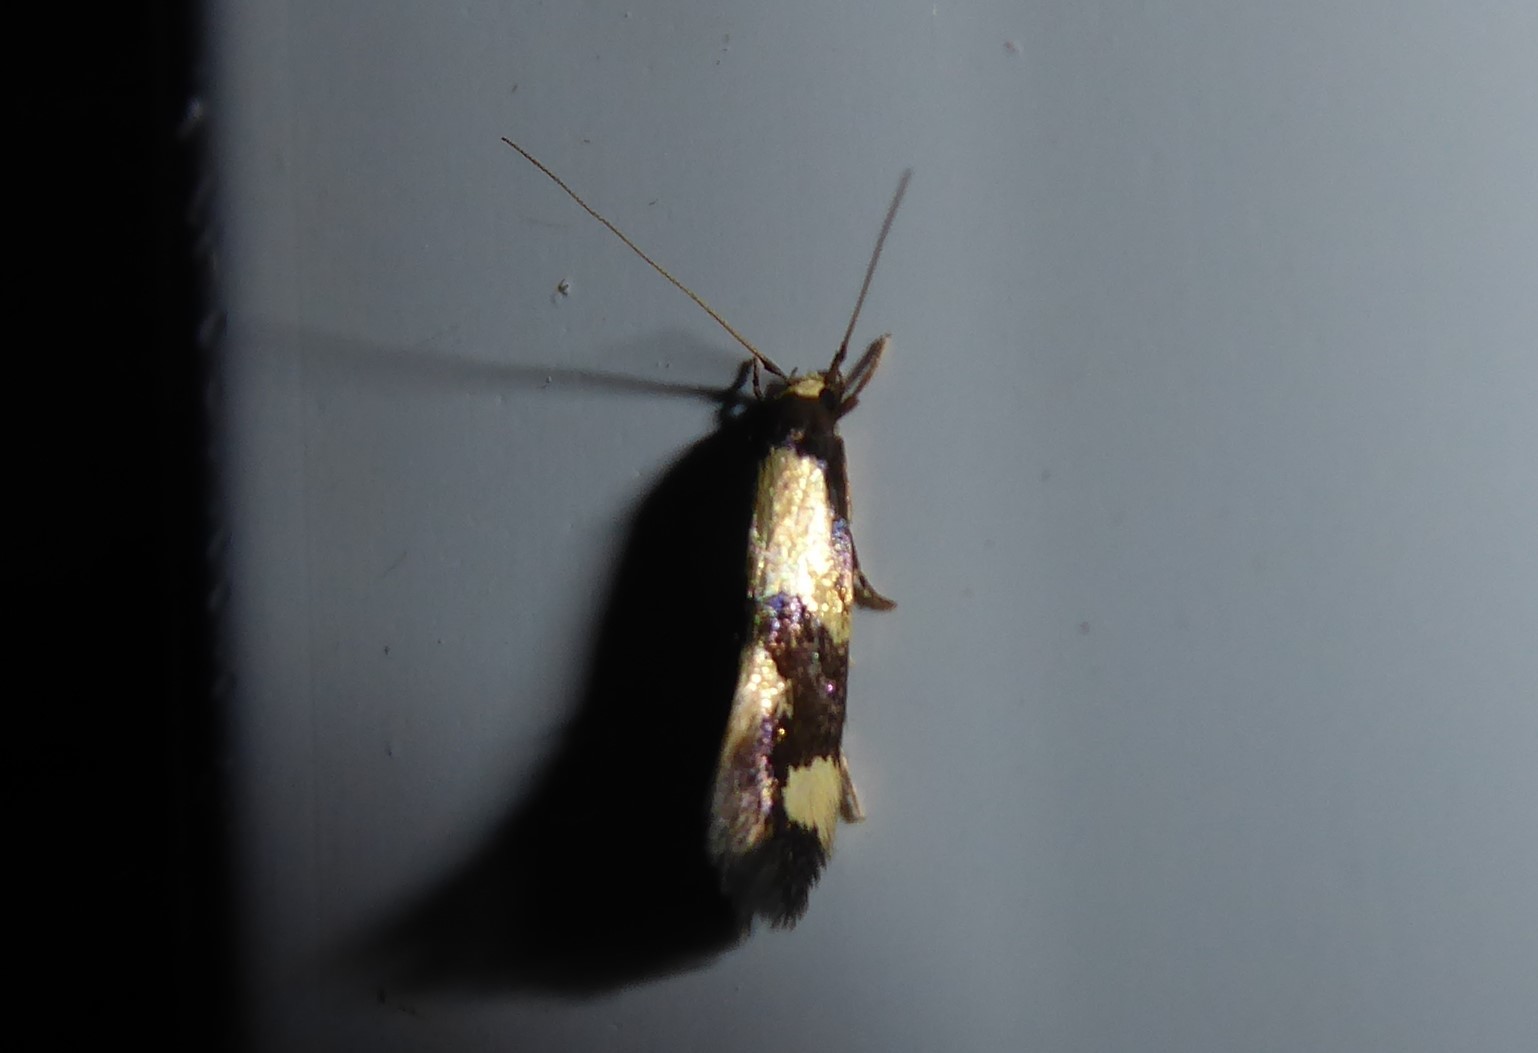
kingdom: Animalia
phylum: Arthropoda
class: Insecta
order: Lepidoptera
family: Tineidae
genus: Opogona
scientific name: Opogona comptella
